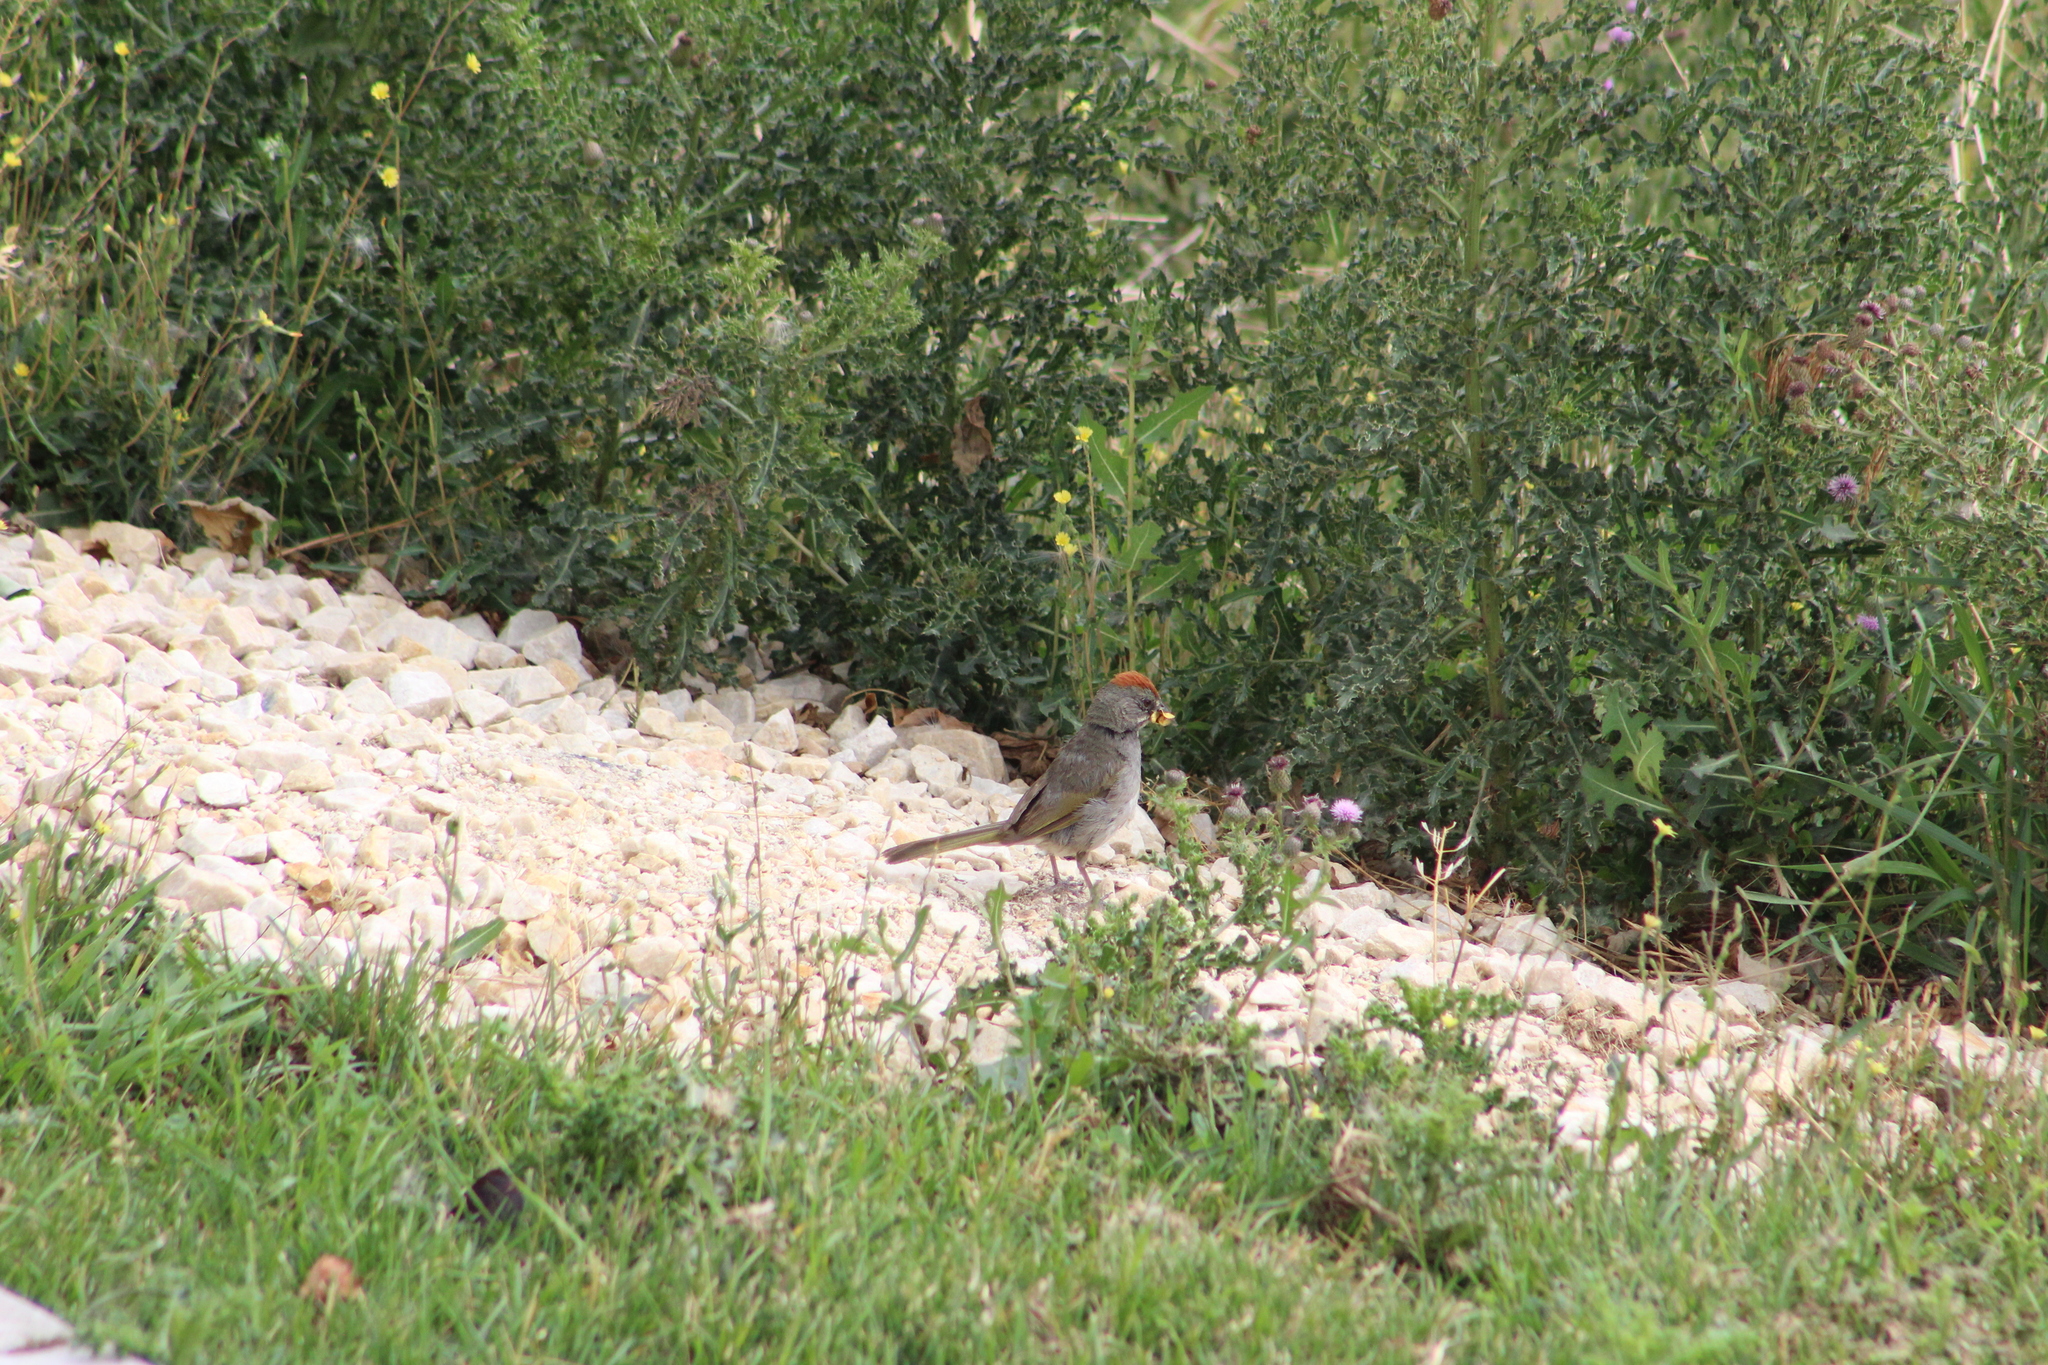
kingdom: Animalia
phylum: Chordata
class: Aves
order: Passeriformes
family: Passerellidae
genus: Pipilo
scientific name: Pipilo chlorurus
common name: Green-tailed towhee
